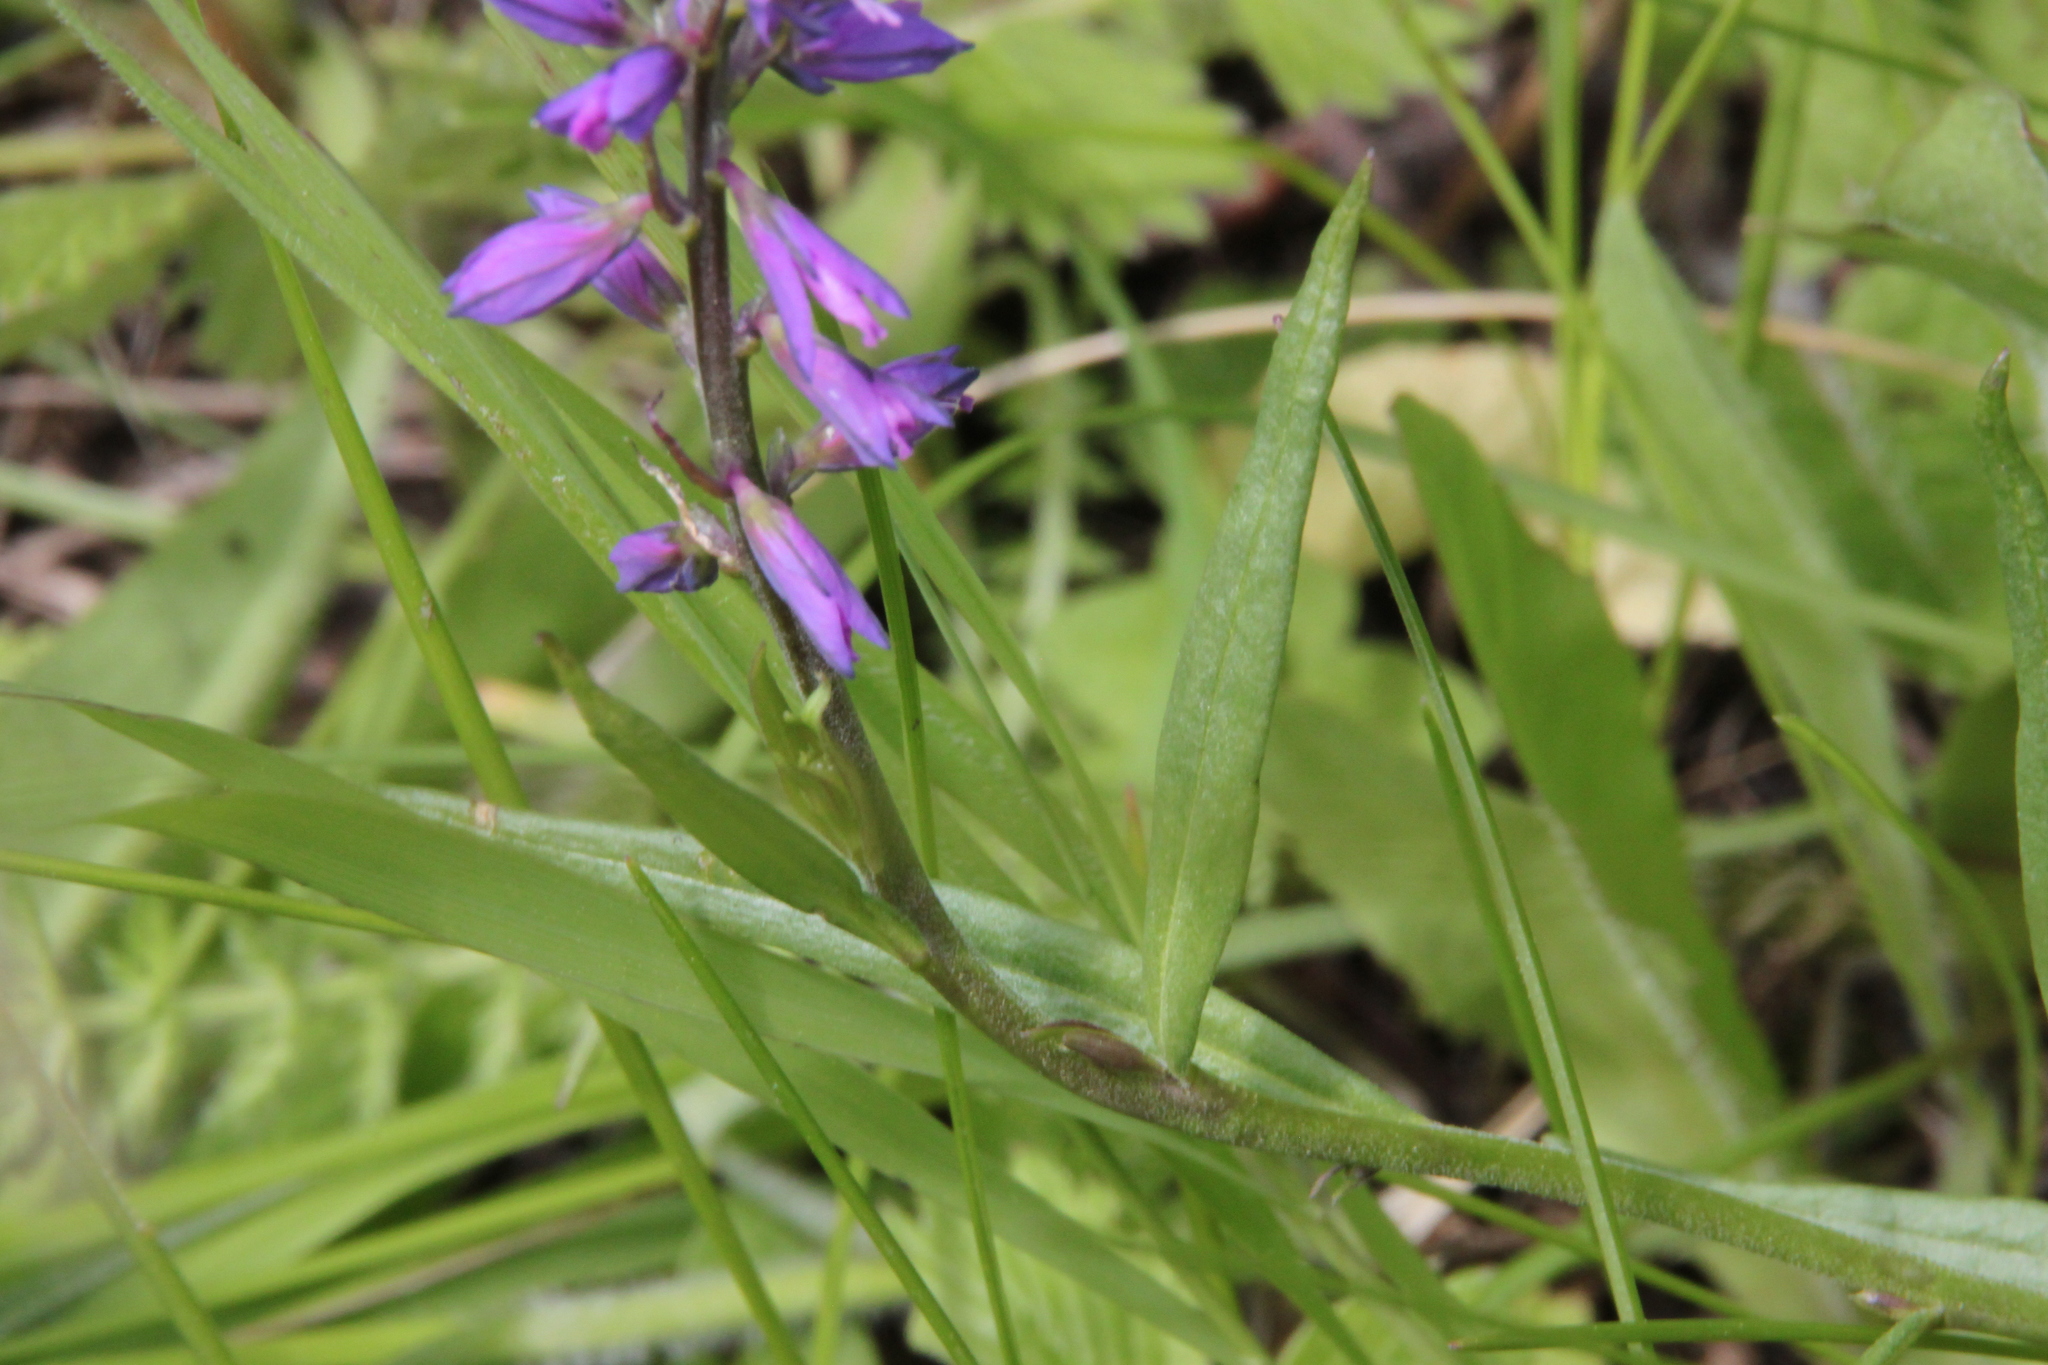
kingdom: Plantae
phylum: Tracheophyta
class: Magnoliopsida
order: Fabales
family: Polygalaceae
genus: Polygala
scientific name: Polygala comosa
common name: Tufted milkwort
